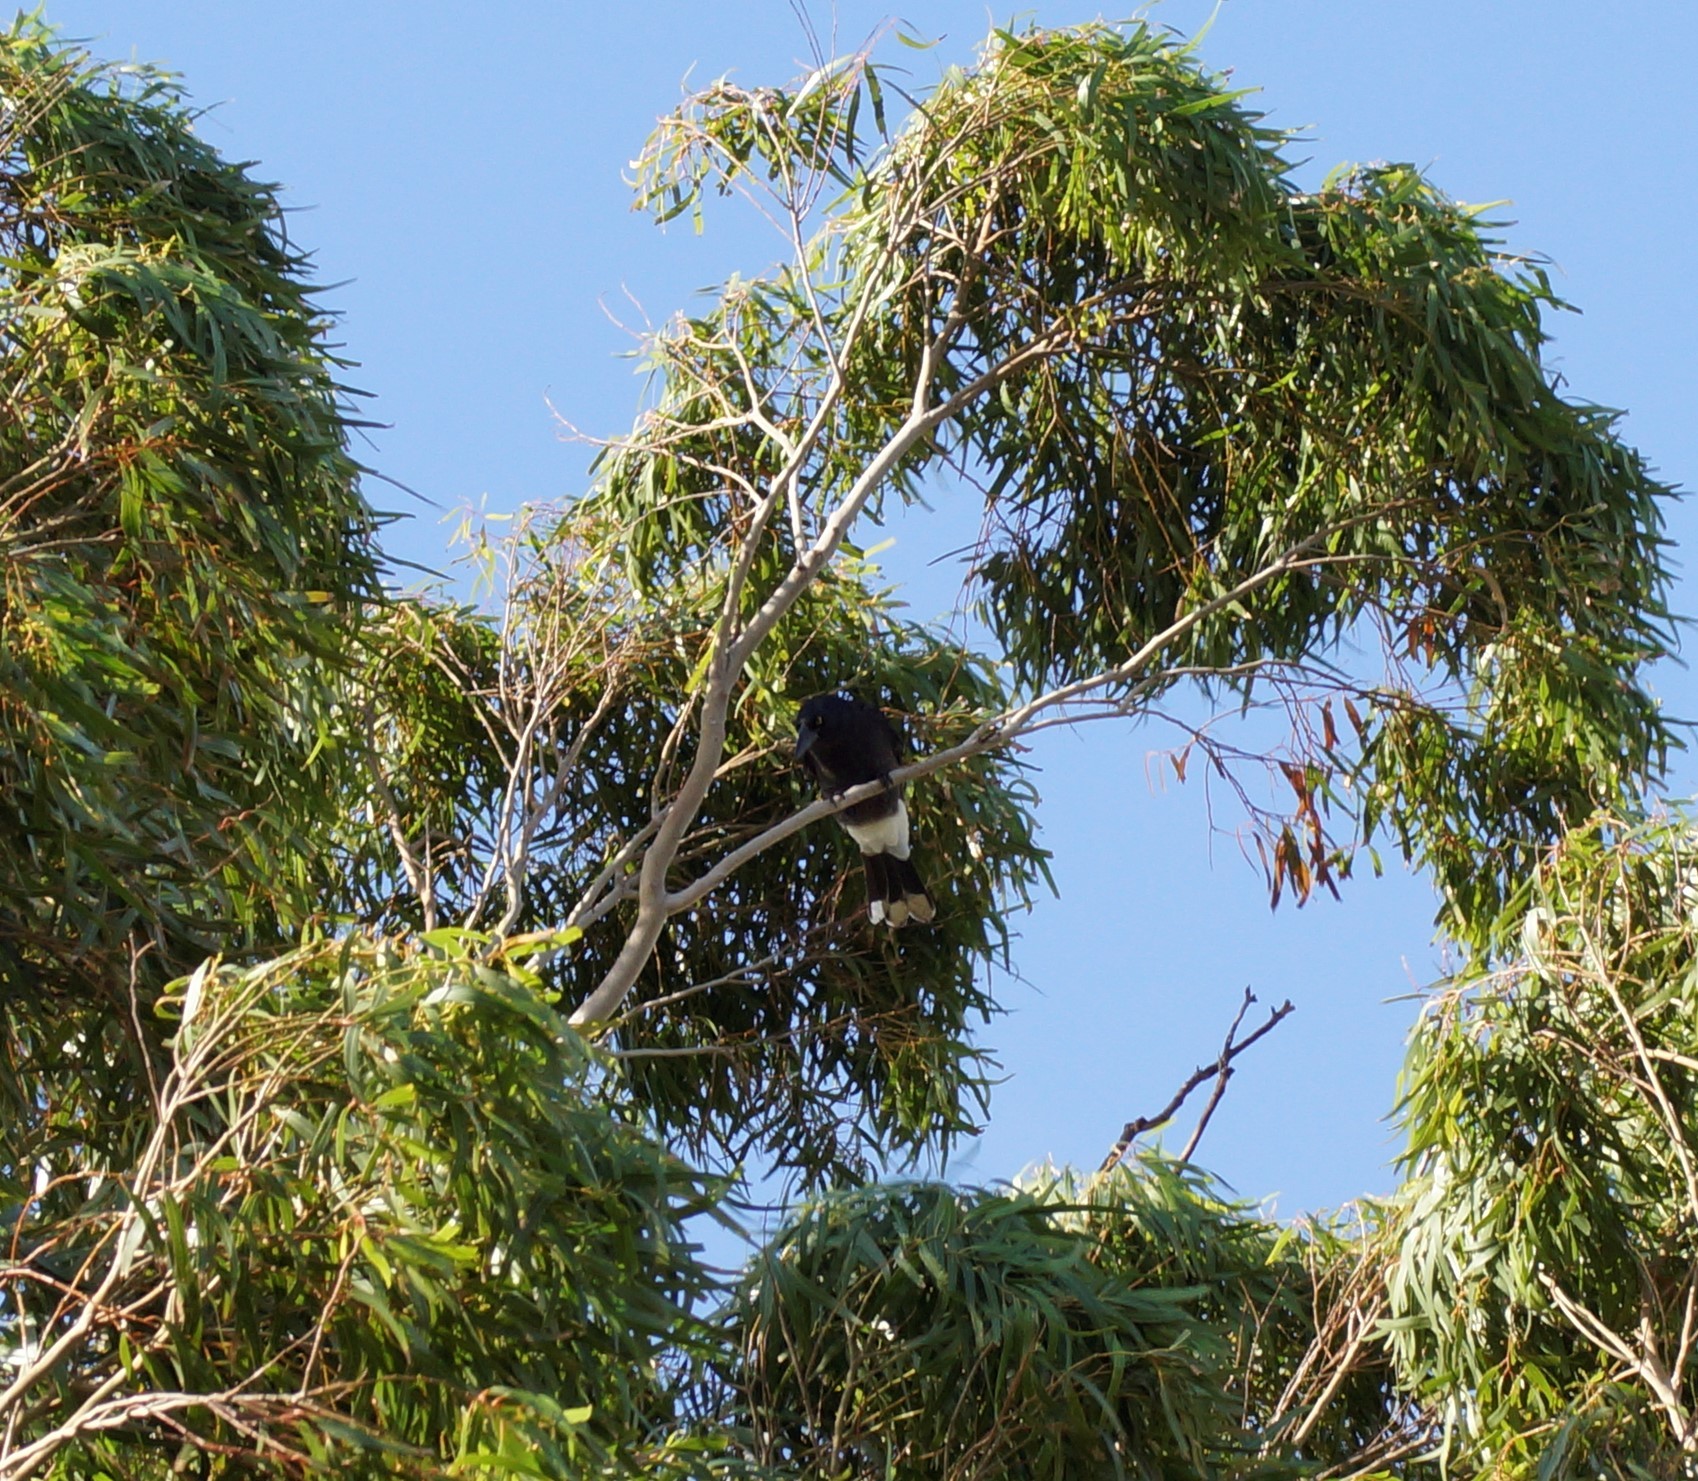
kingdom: Animalia
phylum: Chordata
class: Aves
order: Passeriformes
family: Cracticidae
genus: Strepera
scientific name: Strepera graculina
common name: Pied currawong
